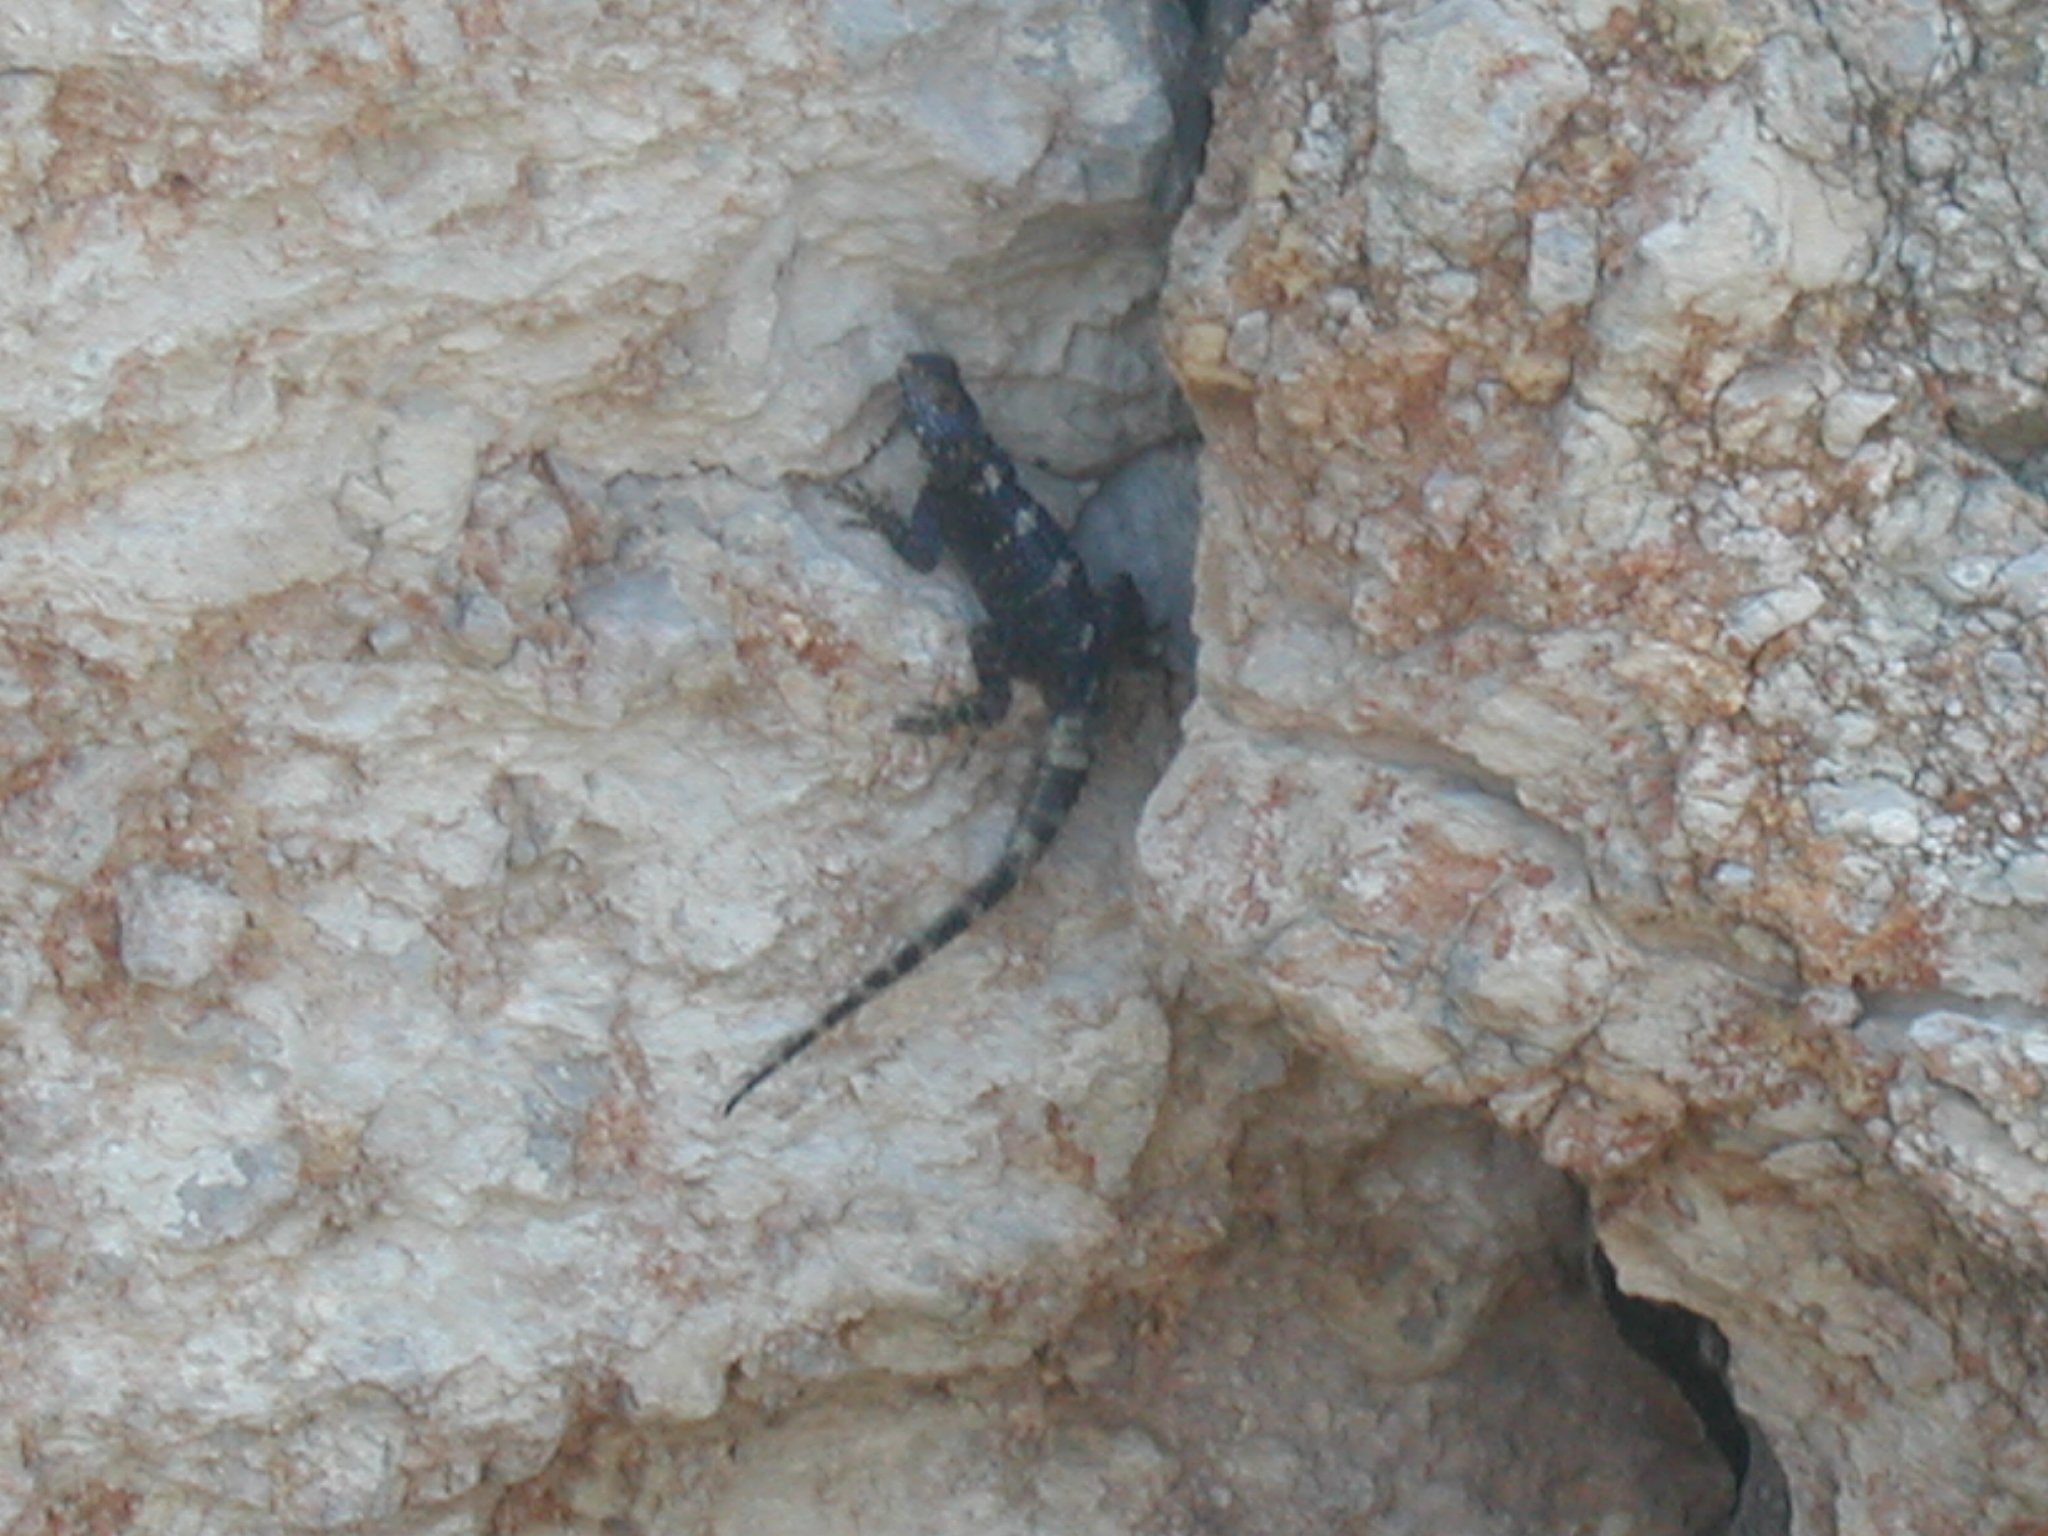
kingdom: Animalia
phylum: Chordata
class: Squamata
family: Agamidae
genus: Stellagama
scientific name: Stellagama stellio
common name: Starred agama
